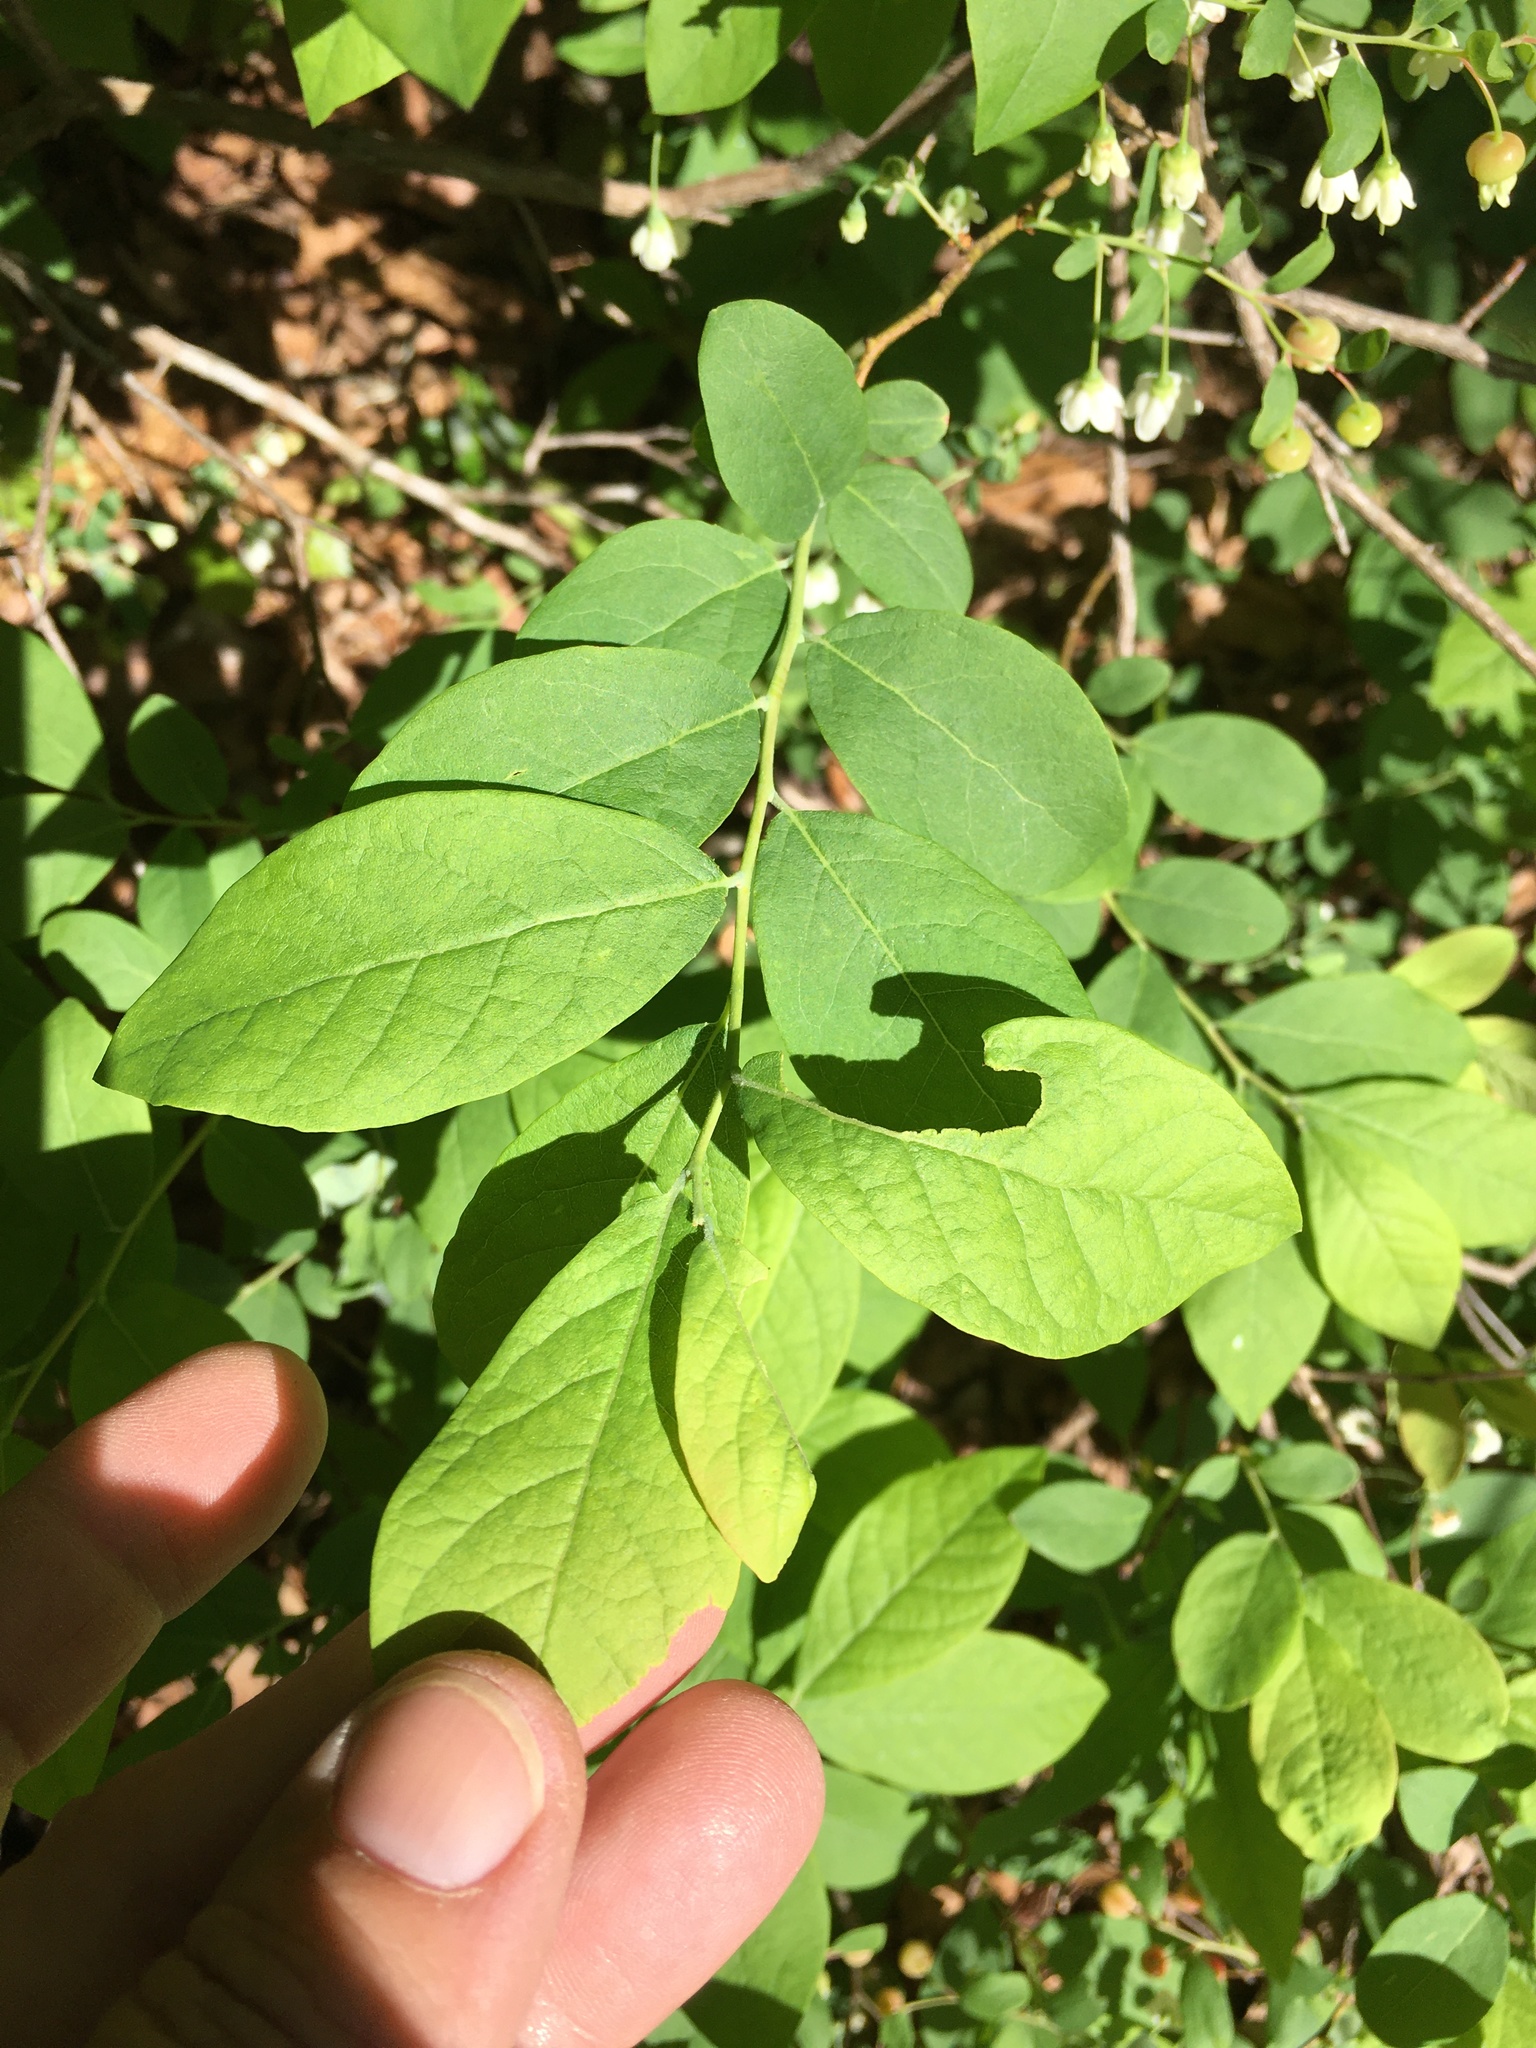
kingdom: Plantae
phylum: Tracheophyta
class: Magnoliopsida
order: Ericales
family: Ericaceae
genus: Vaccinium
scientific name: Vaccinium stamineum
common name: Deerberry
